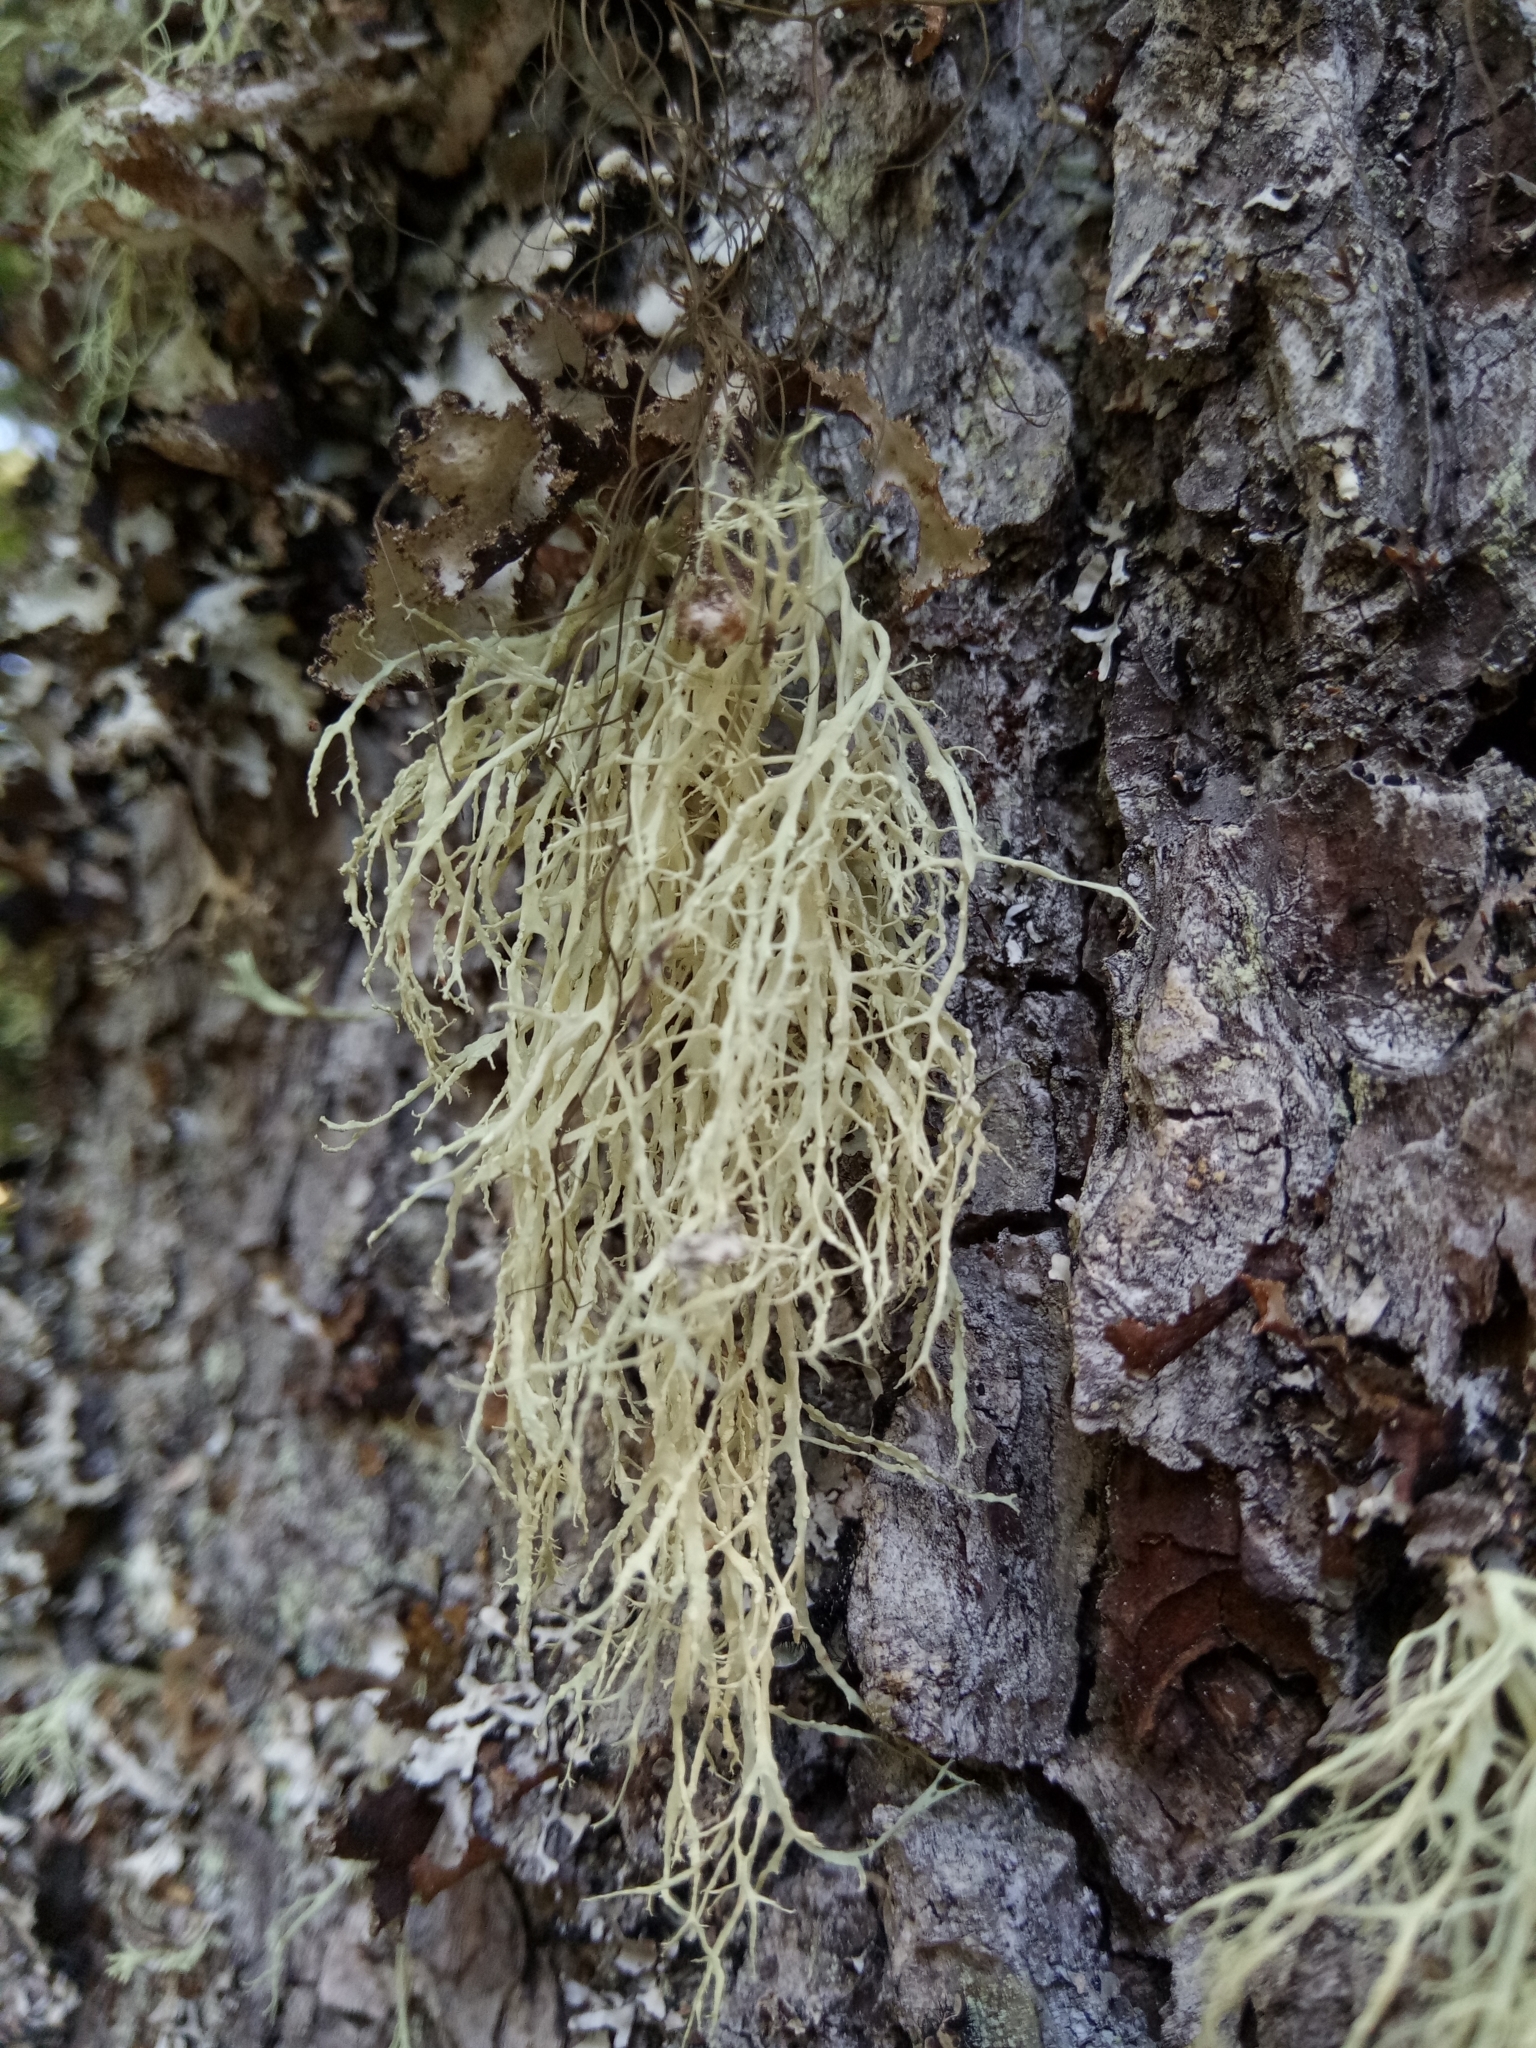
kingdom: Fungi
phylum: Ascomycota
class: Lecanoromycetes
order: Lecanorales
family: Ramalinaceae
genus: Ramalina
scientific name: Ramalina farinacea
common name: Farinose cartilage lichen
